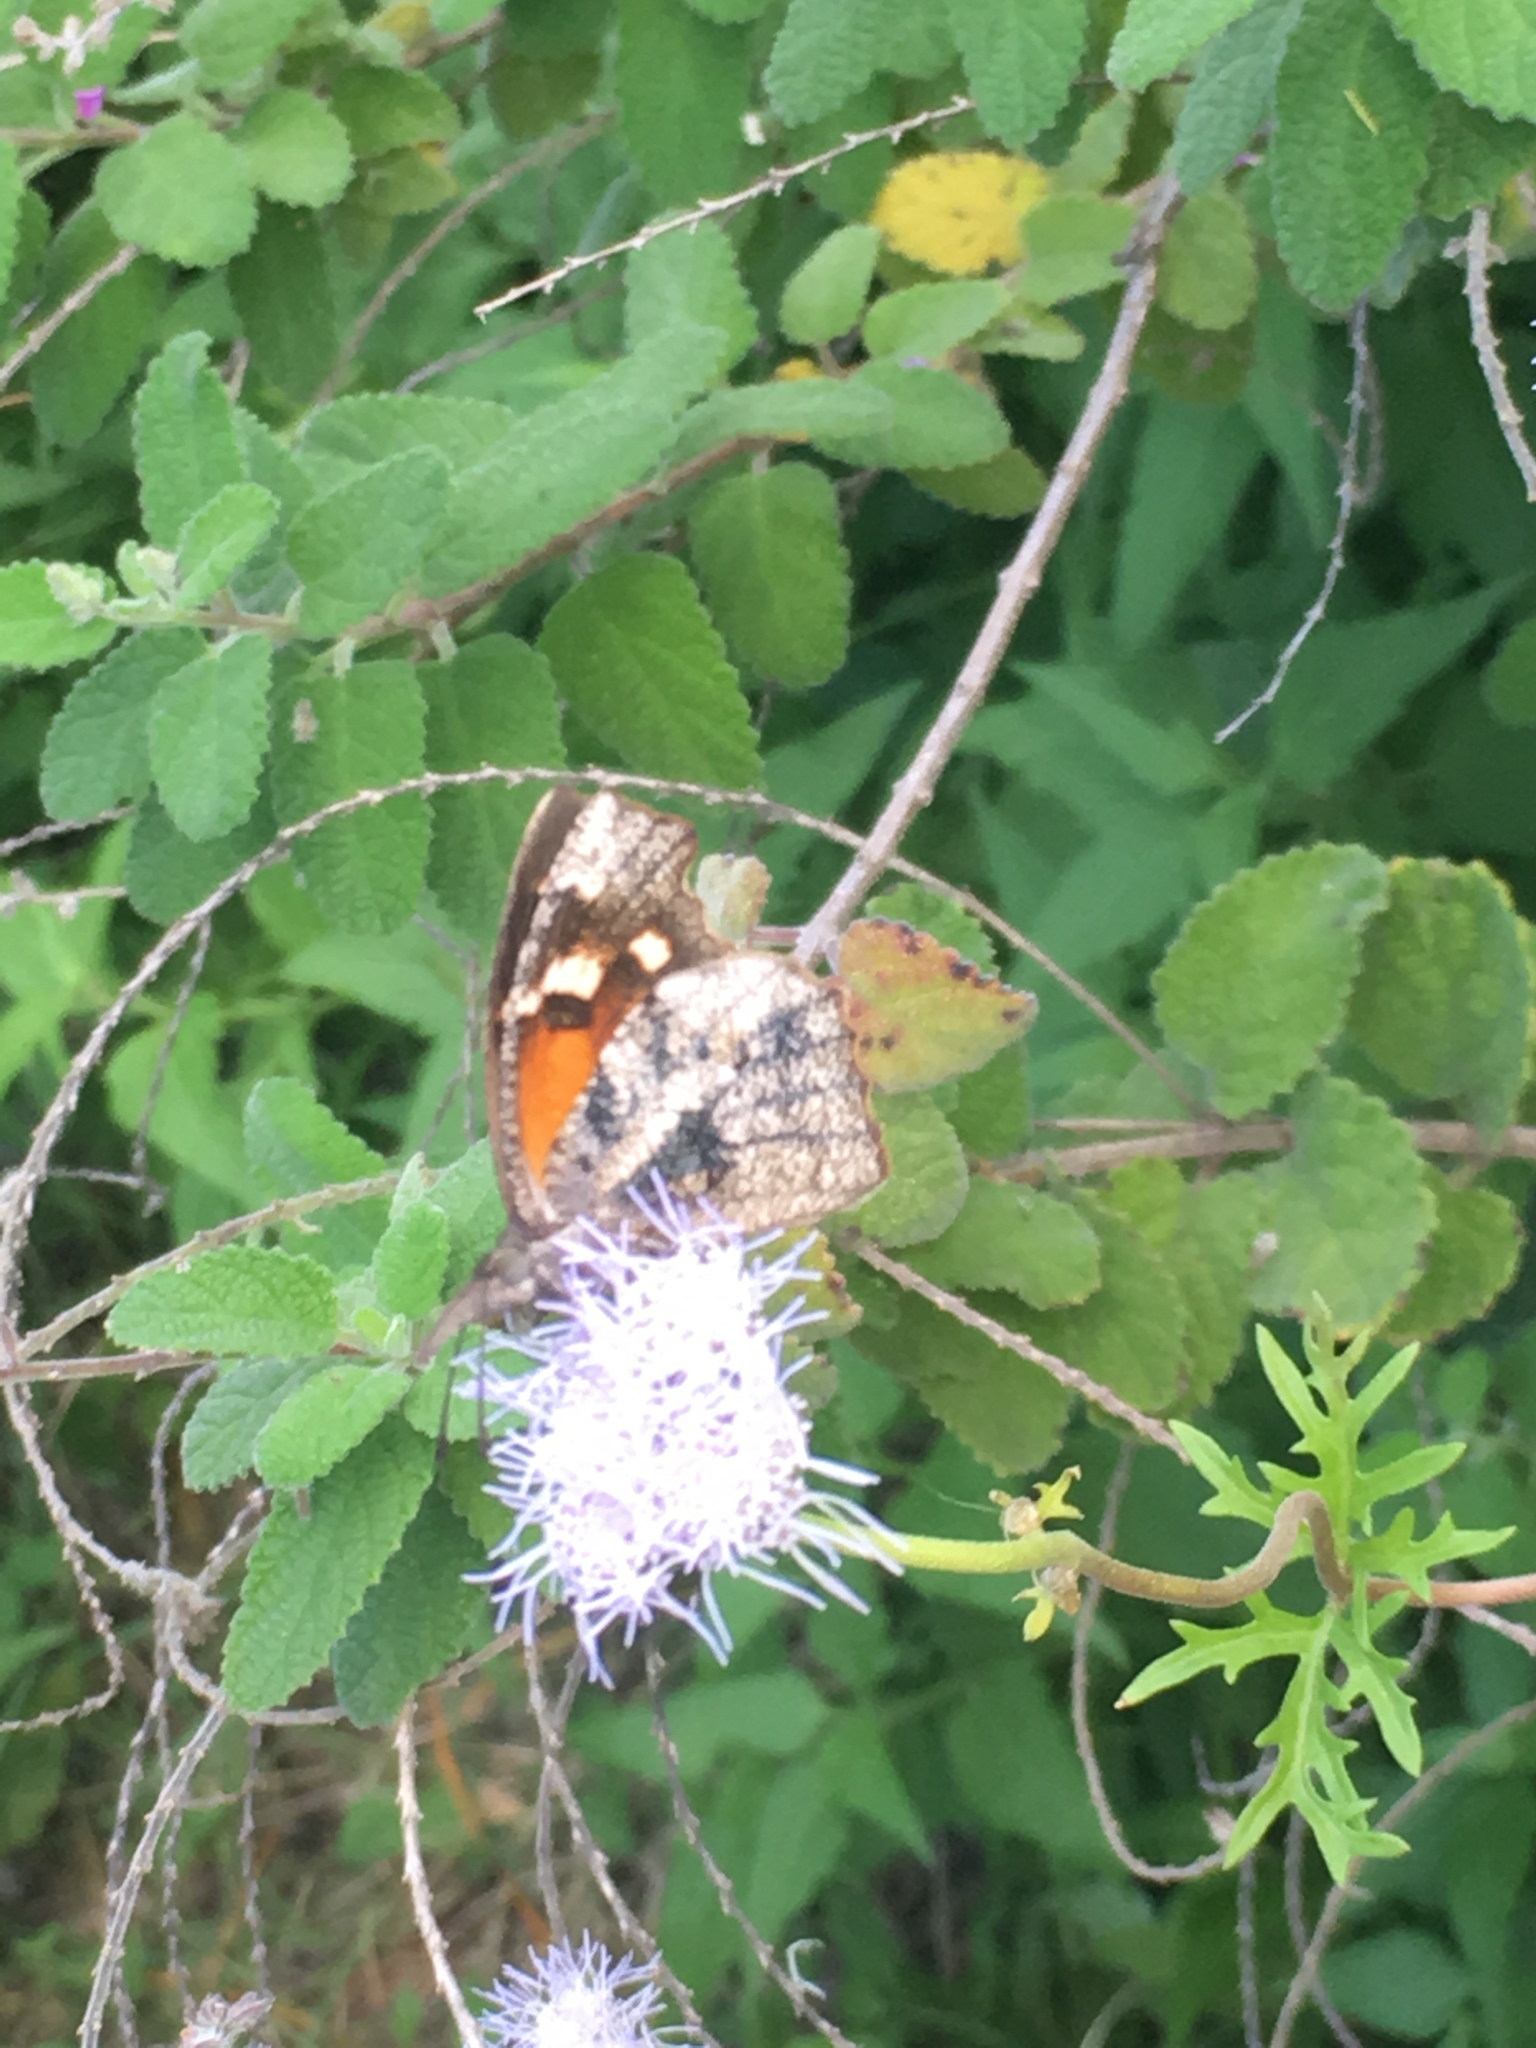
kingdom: Animalia
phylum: Arthropoda
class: Insecta
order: Lepidoptera
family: Nymphalidae
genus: Libytheana
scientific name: Libytheana carinenta
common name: American snout
